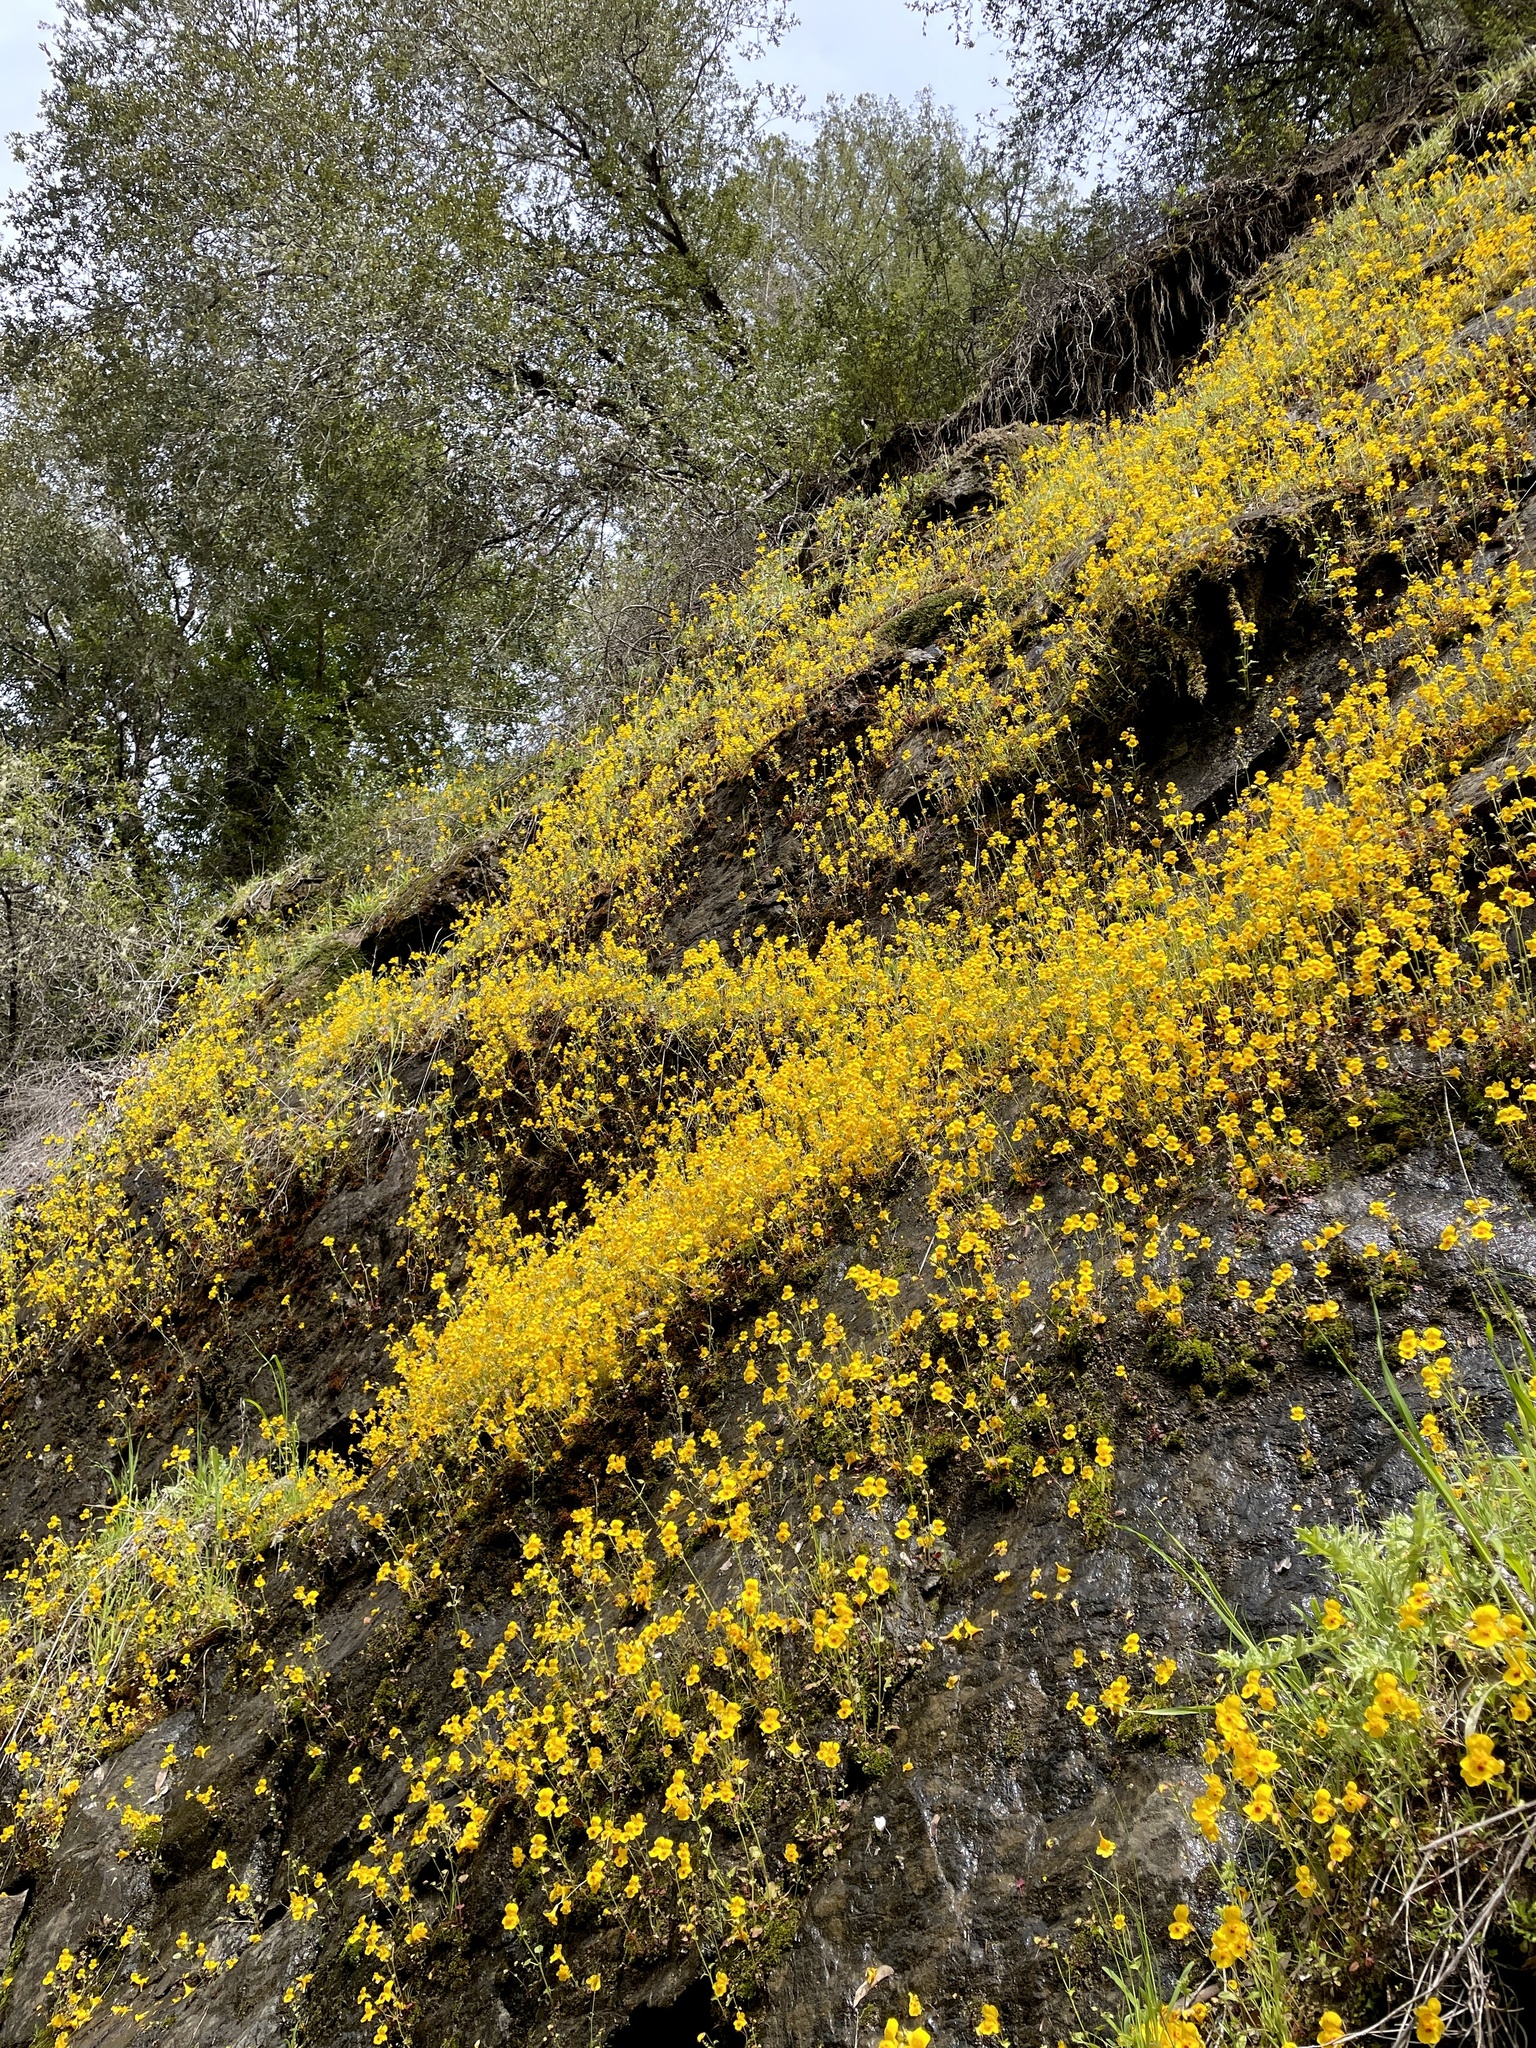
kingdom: Plantae
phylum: Tracheophyta
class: Magnoliopsida
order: Lamiales
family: Phrymaceae
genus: Erythranthe
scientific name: Erythranthe microphylla
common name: Bentham's monkeyflower
